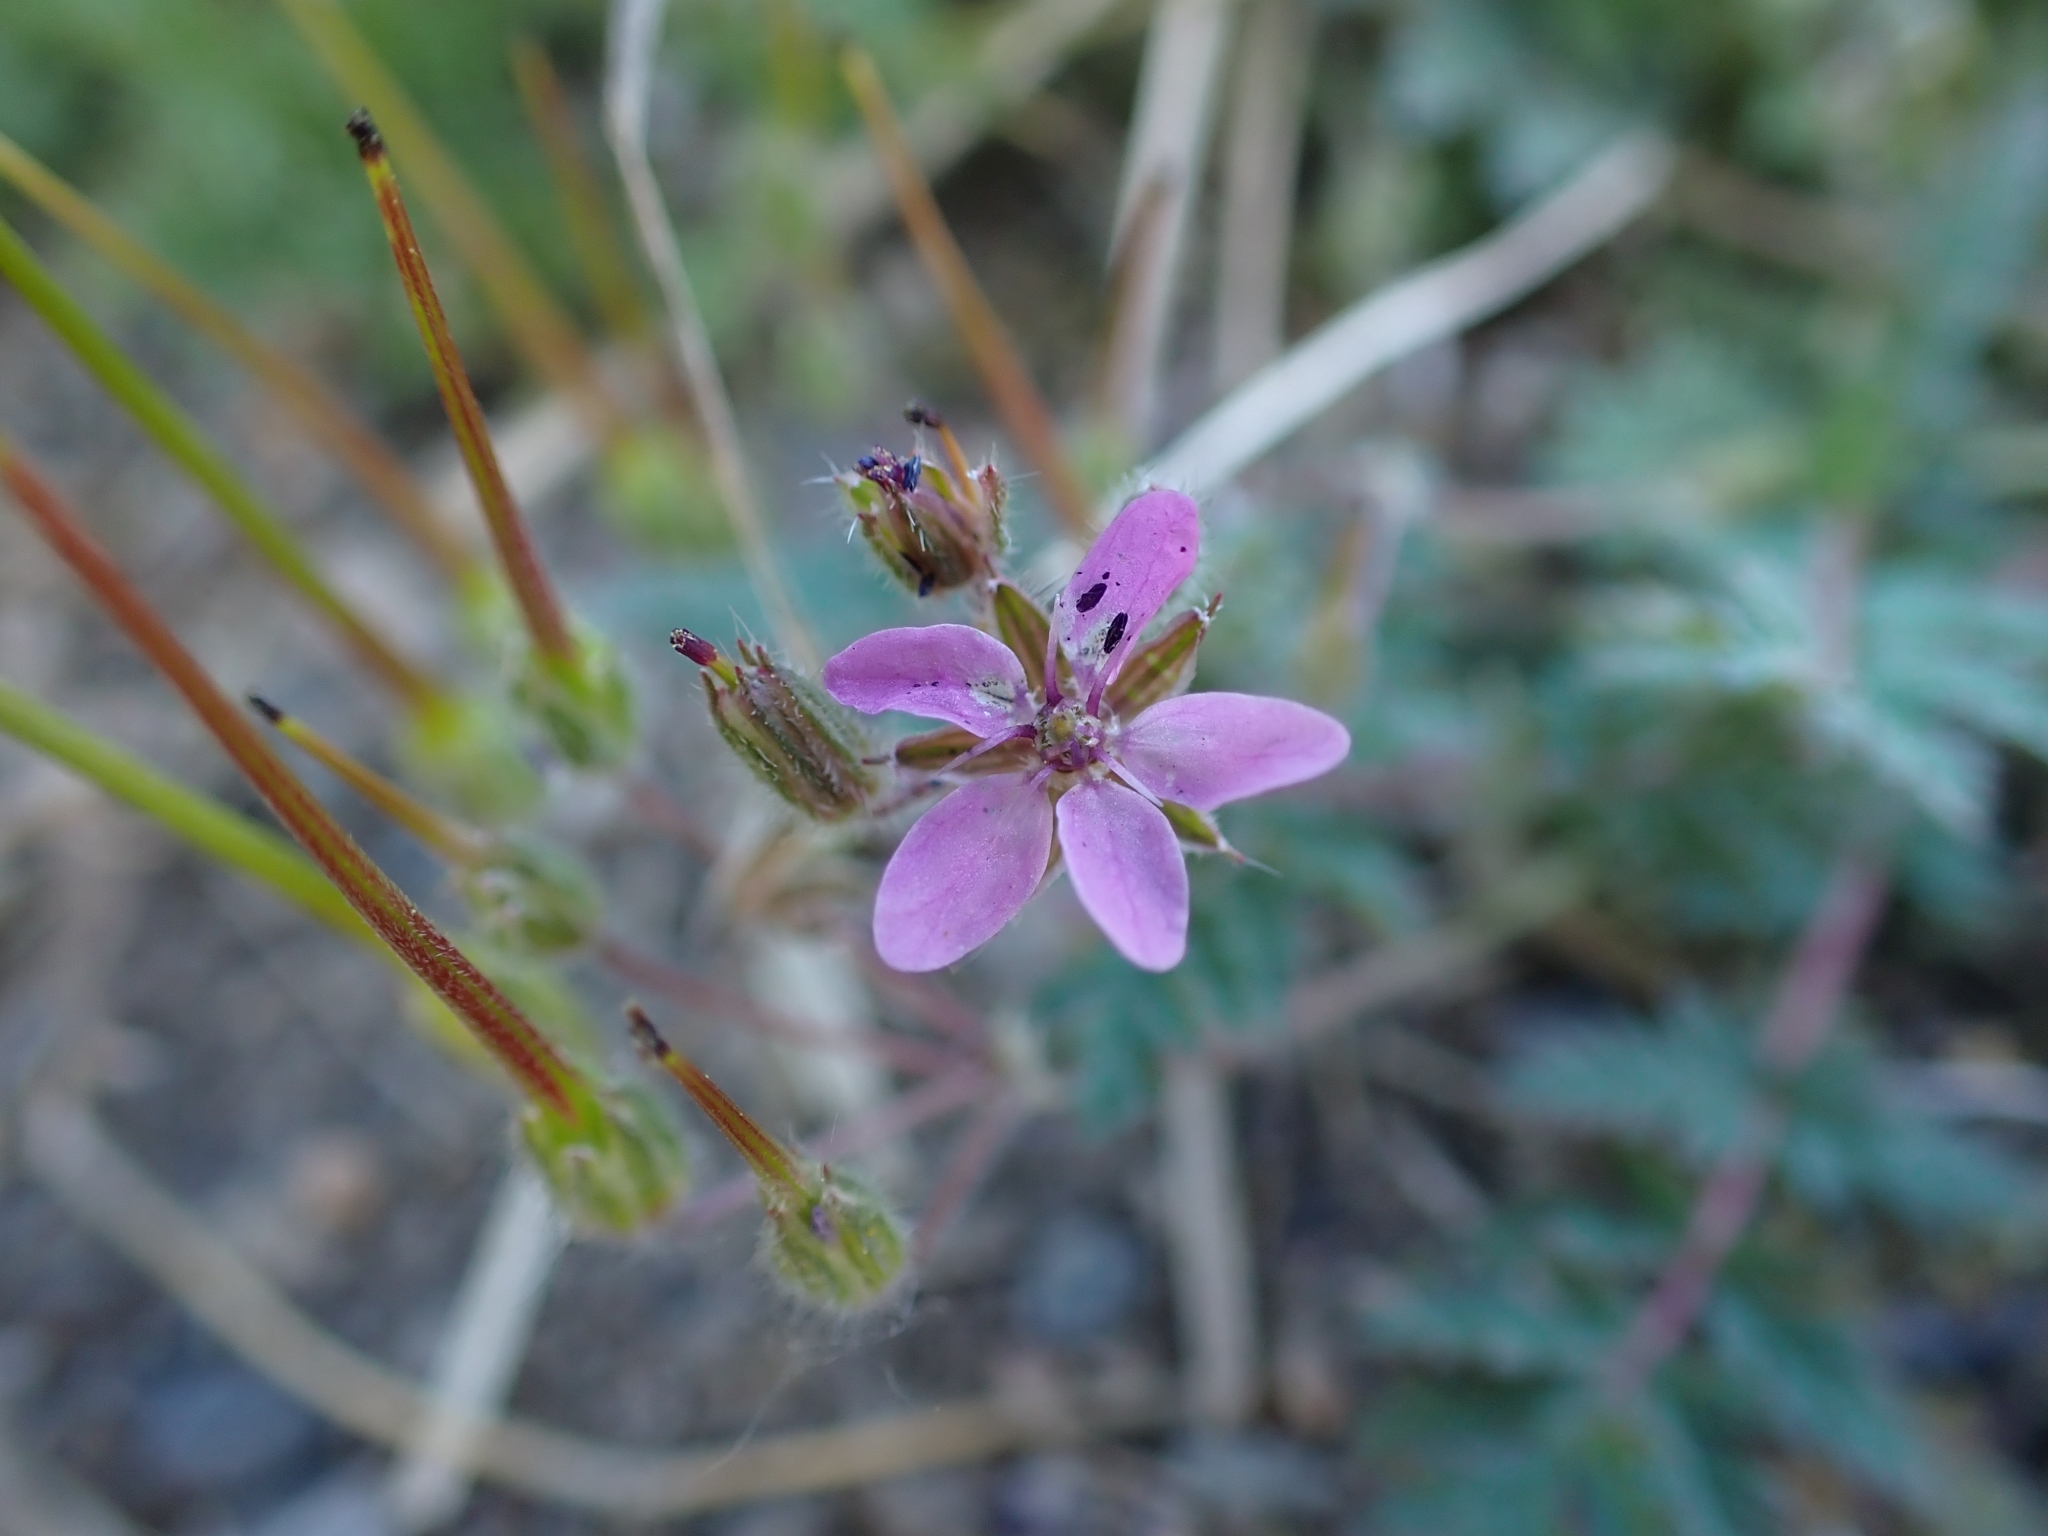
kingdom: Plantae
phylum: Tracheophyta
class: Magnoliopsida
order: Geraniales
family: Geraniaceae
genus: Erodium
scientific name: Erodium cicutarium
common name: Common stork's-bill
